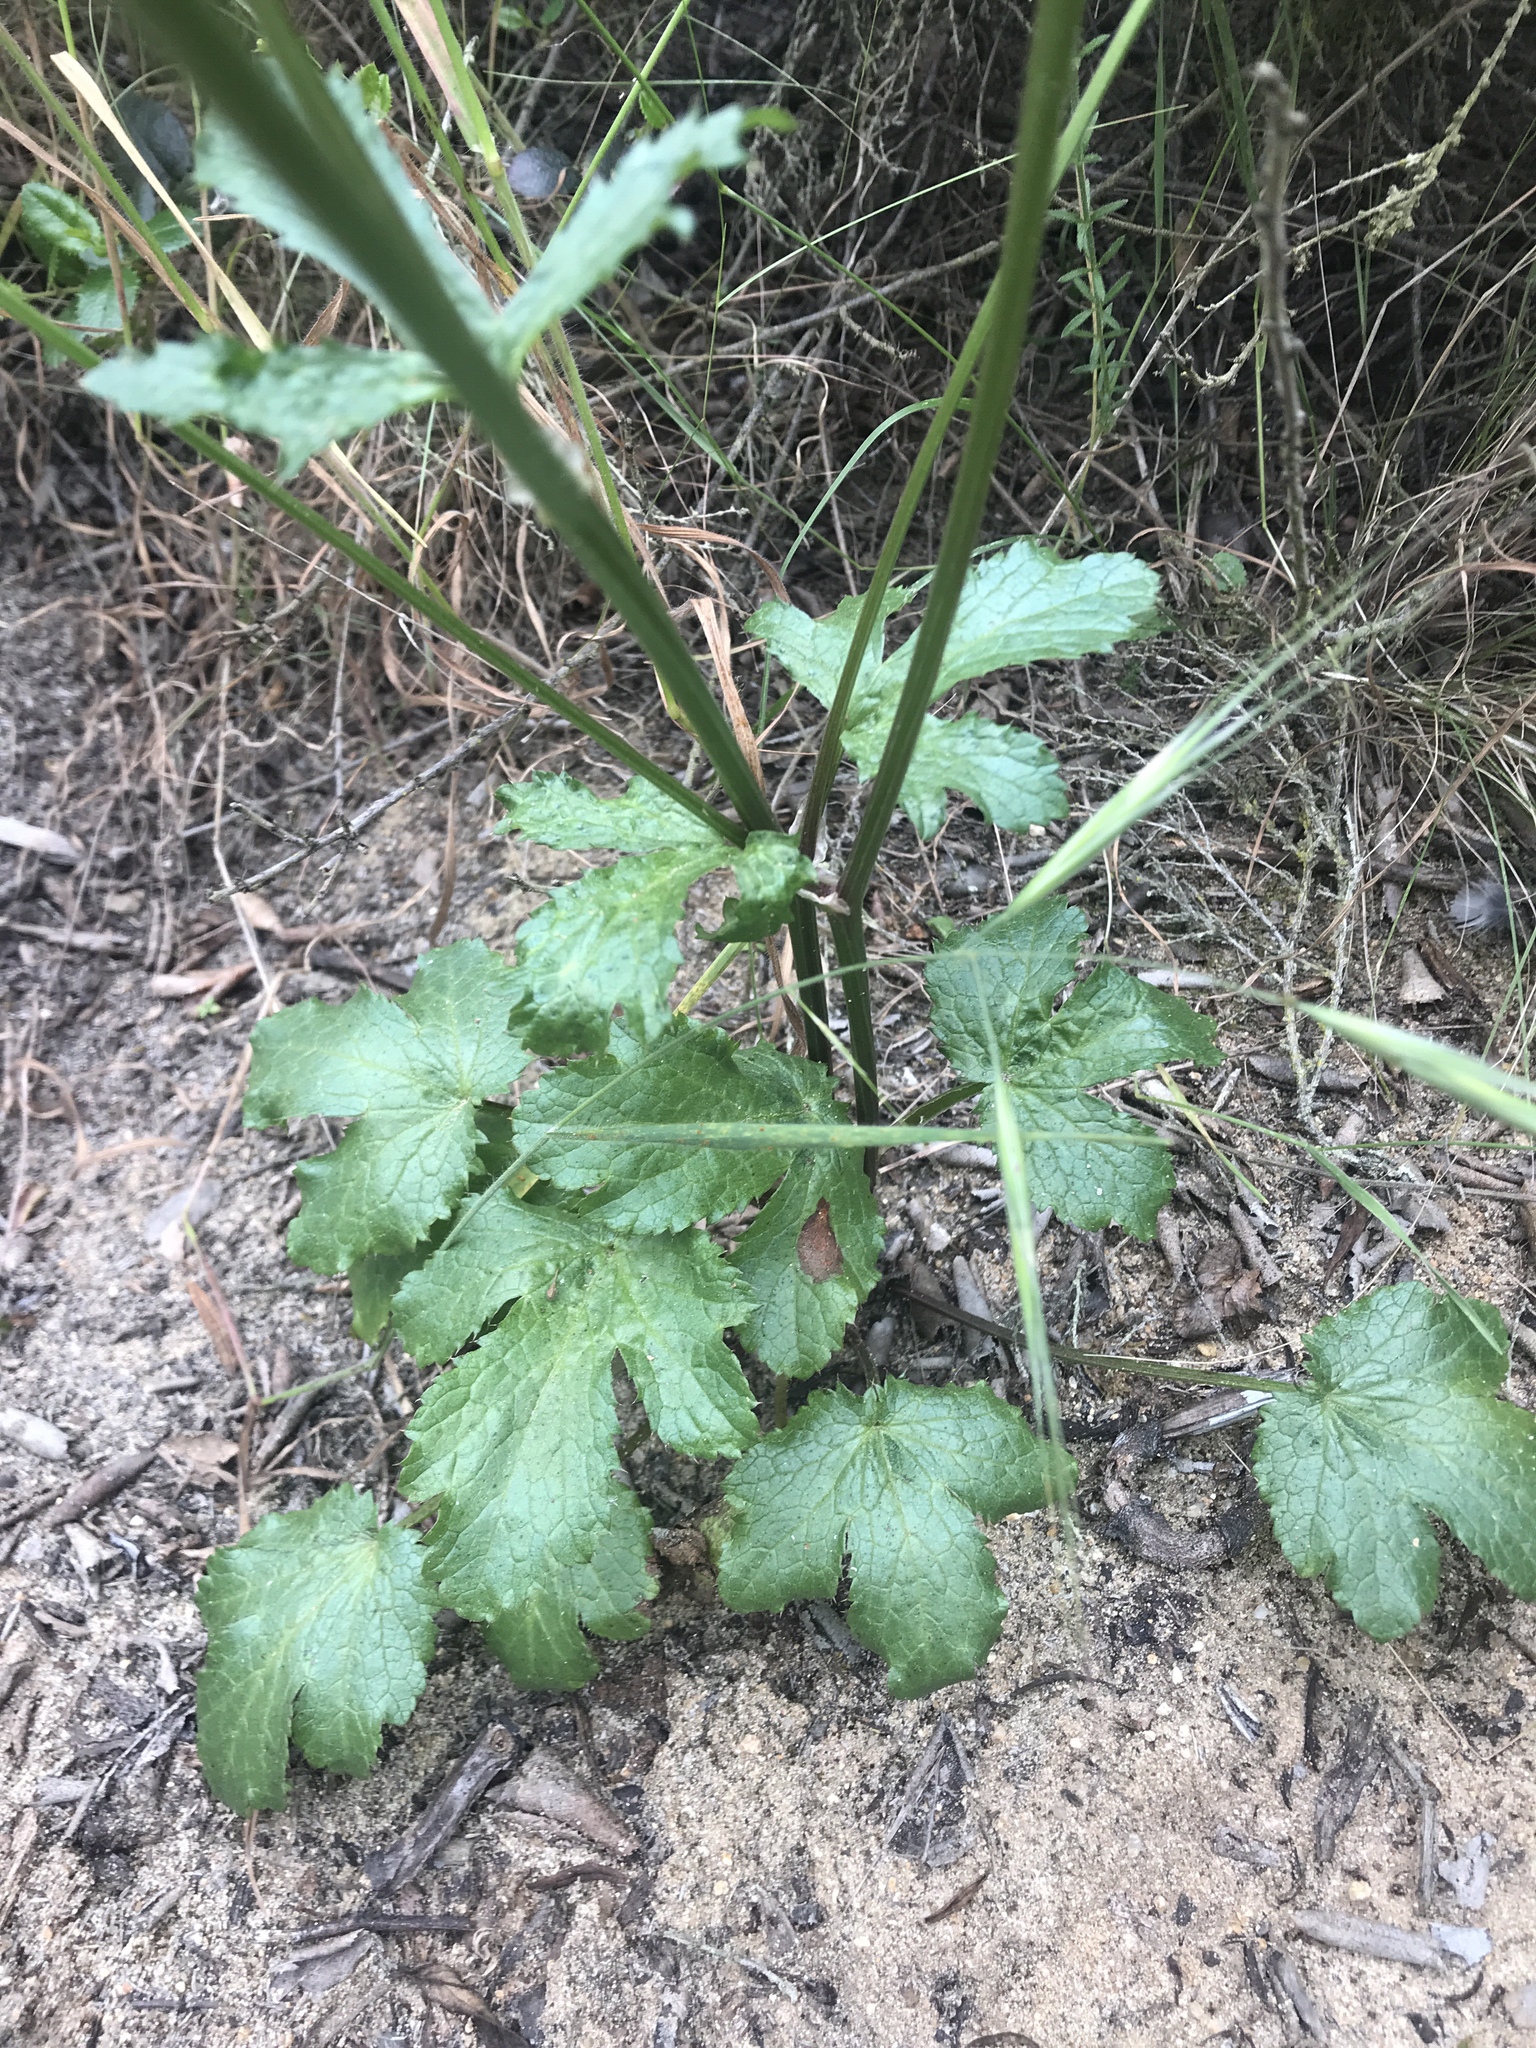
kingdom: Plantae
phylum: Tracheophyta
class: Magnoliopsida
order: Apiales
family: Apiaceae
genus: Sanicula
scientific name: Sanicula crassicaulis
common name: Western snakeroot
